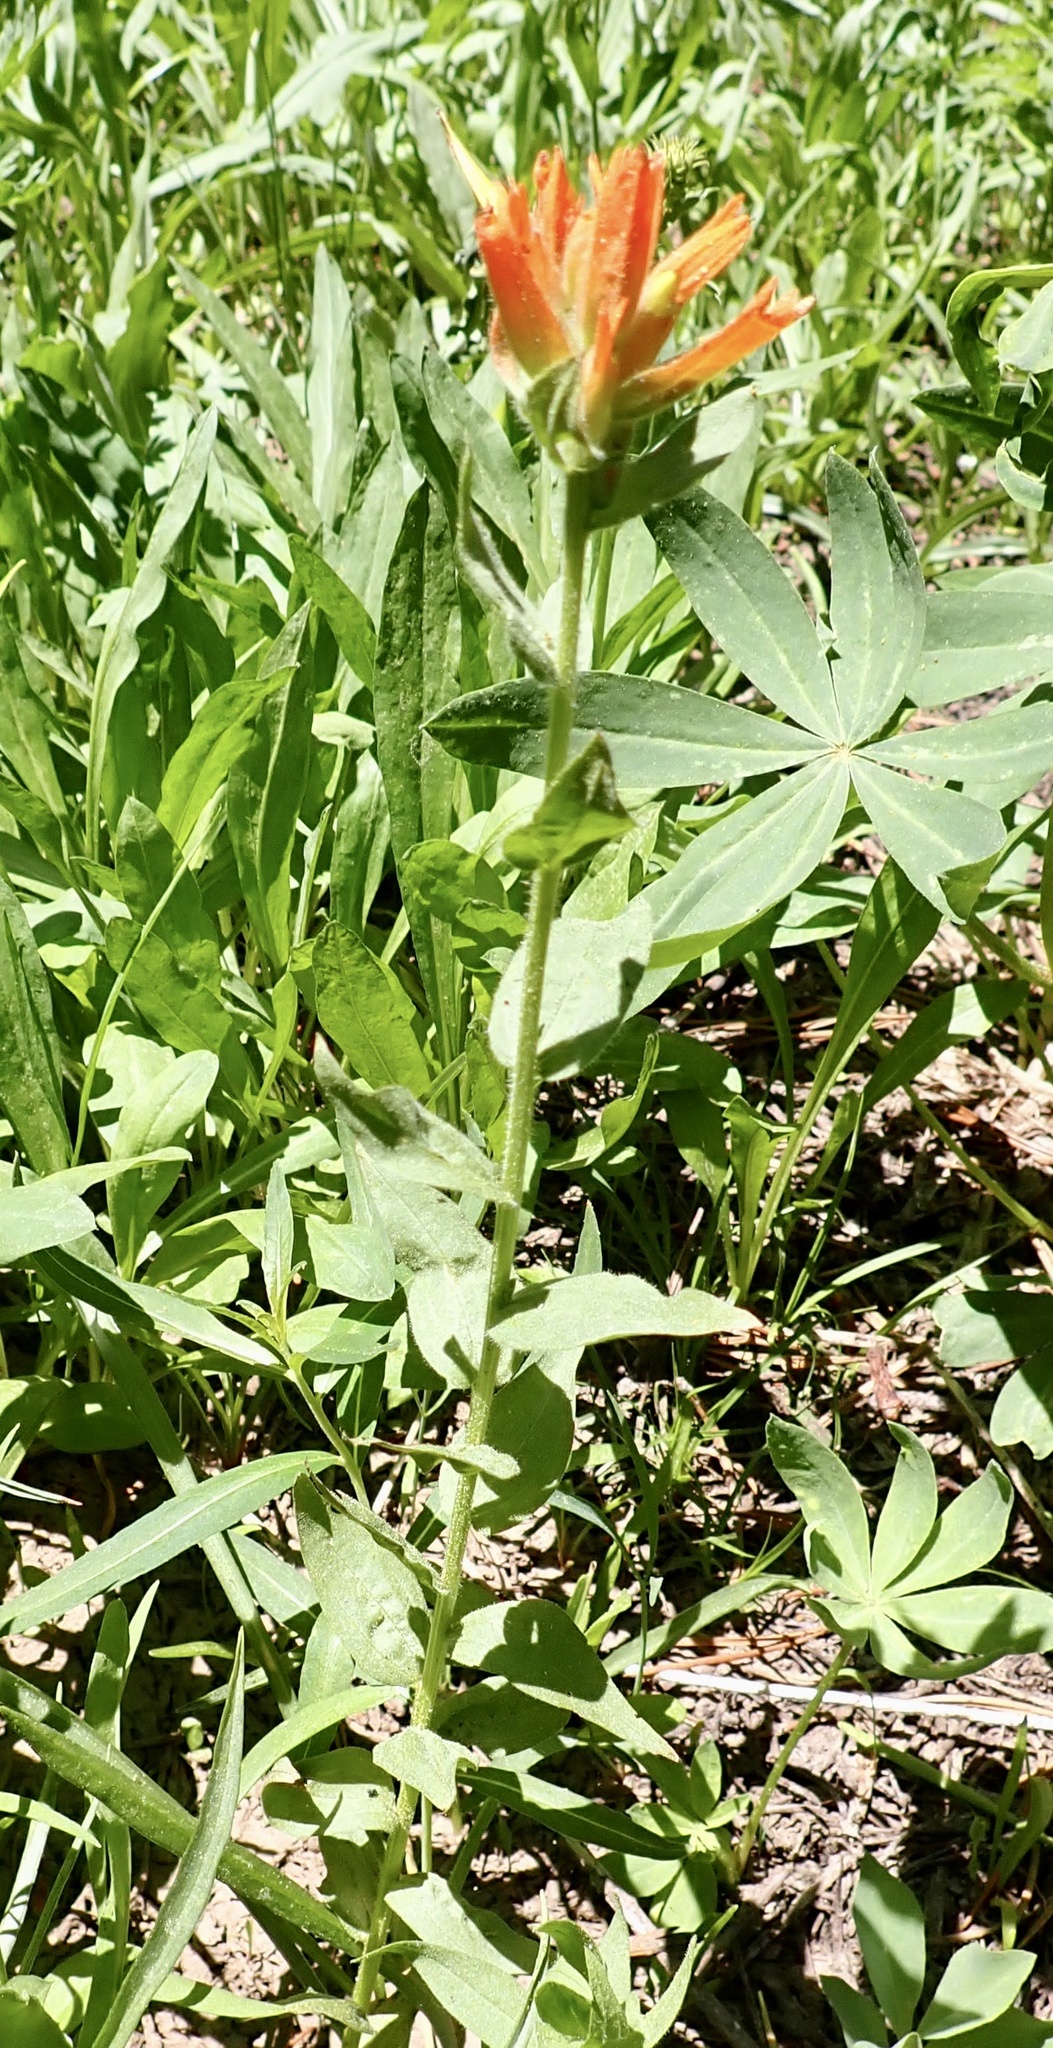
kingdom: Plantae
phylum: Tracheophyta
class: Magnoliopsida
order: Lamiales
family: Orobanchaceae
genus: Castilleja
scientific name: Castilleja miniata
